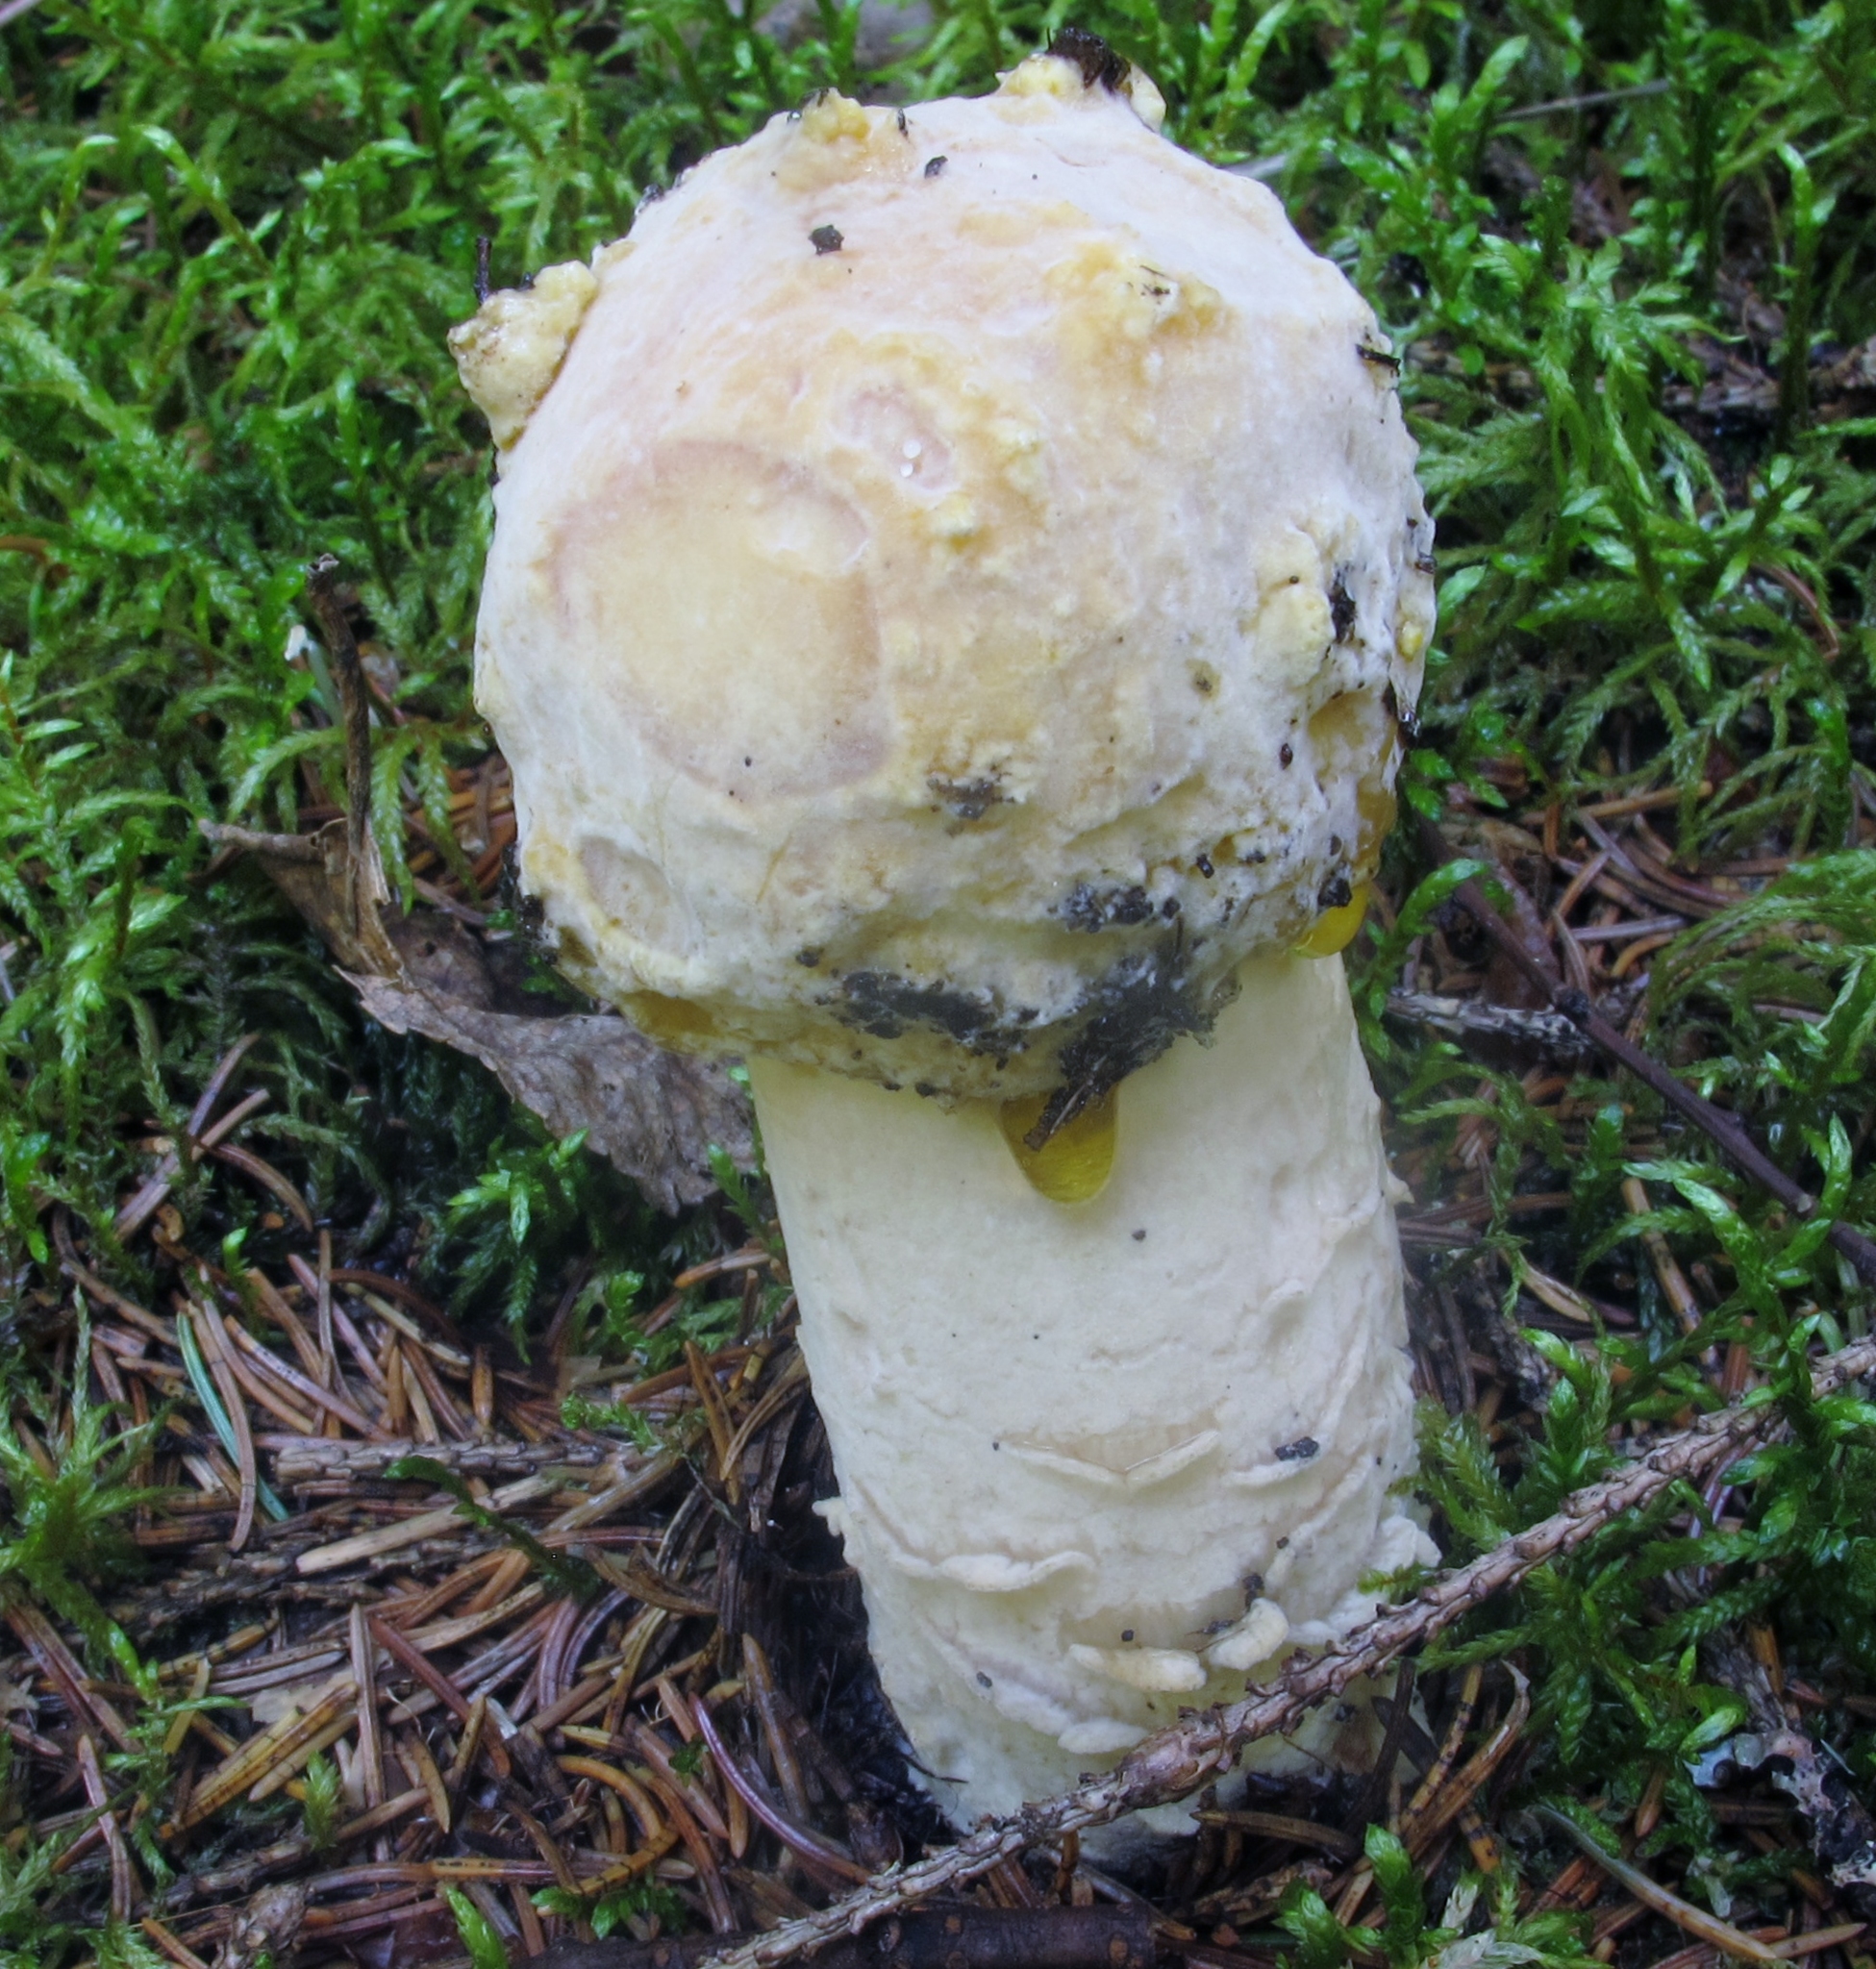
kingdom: Fungi
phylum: Ascomycota
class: Sordariomycetes
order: Hypocreales
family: Hypocreaceae
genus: Hypomyces
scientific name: Hypomyces hyalinus
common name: Amanita mold
